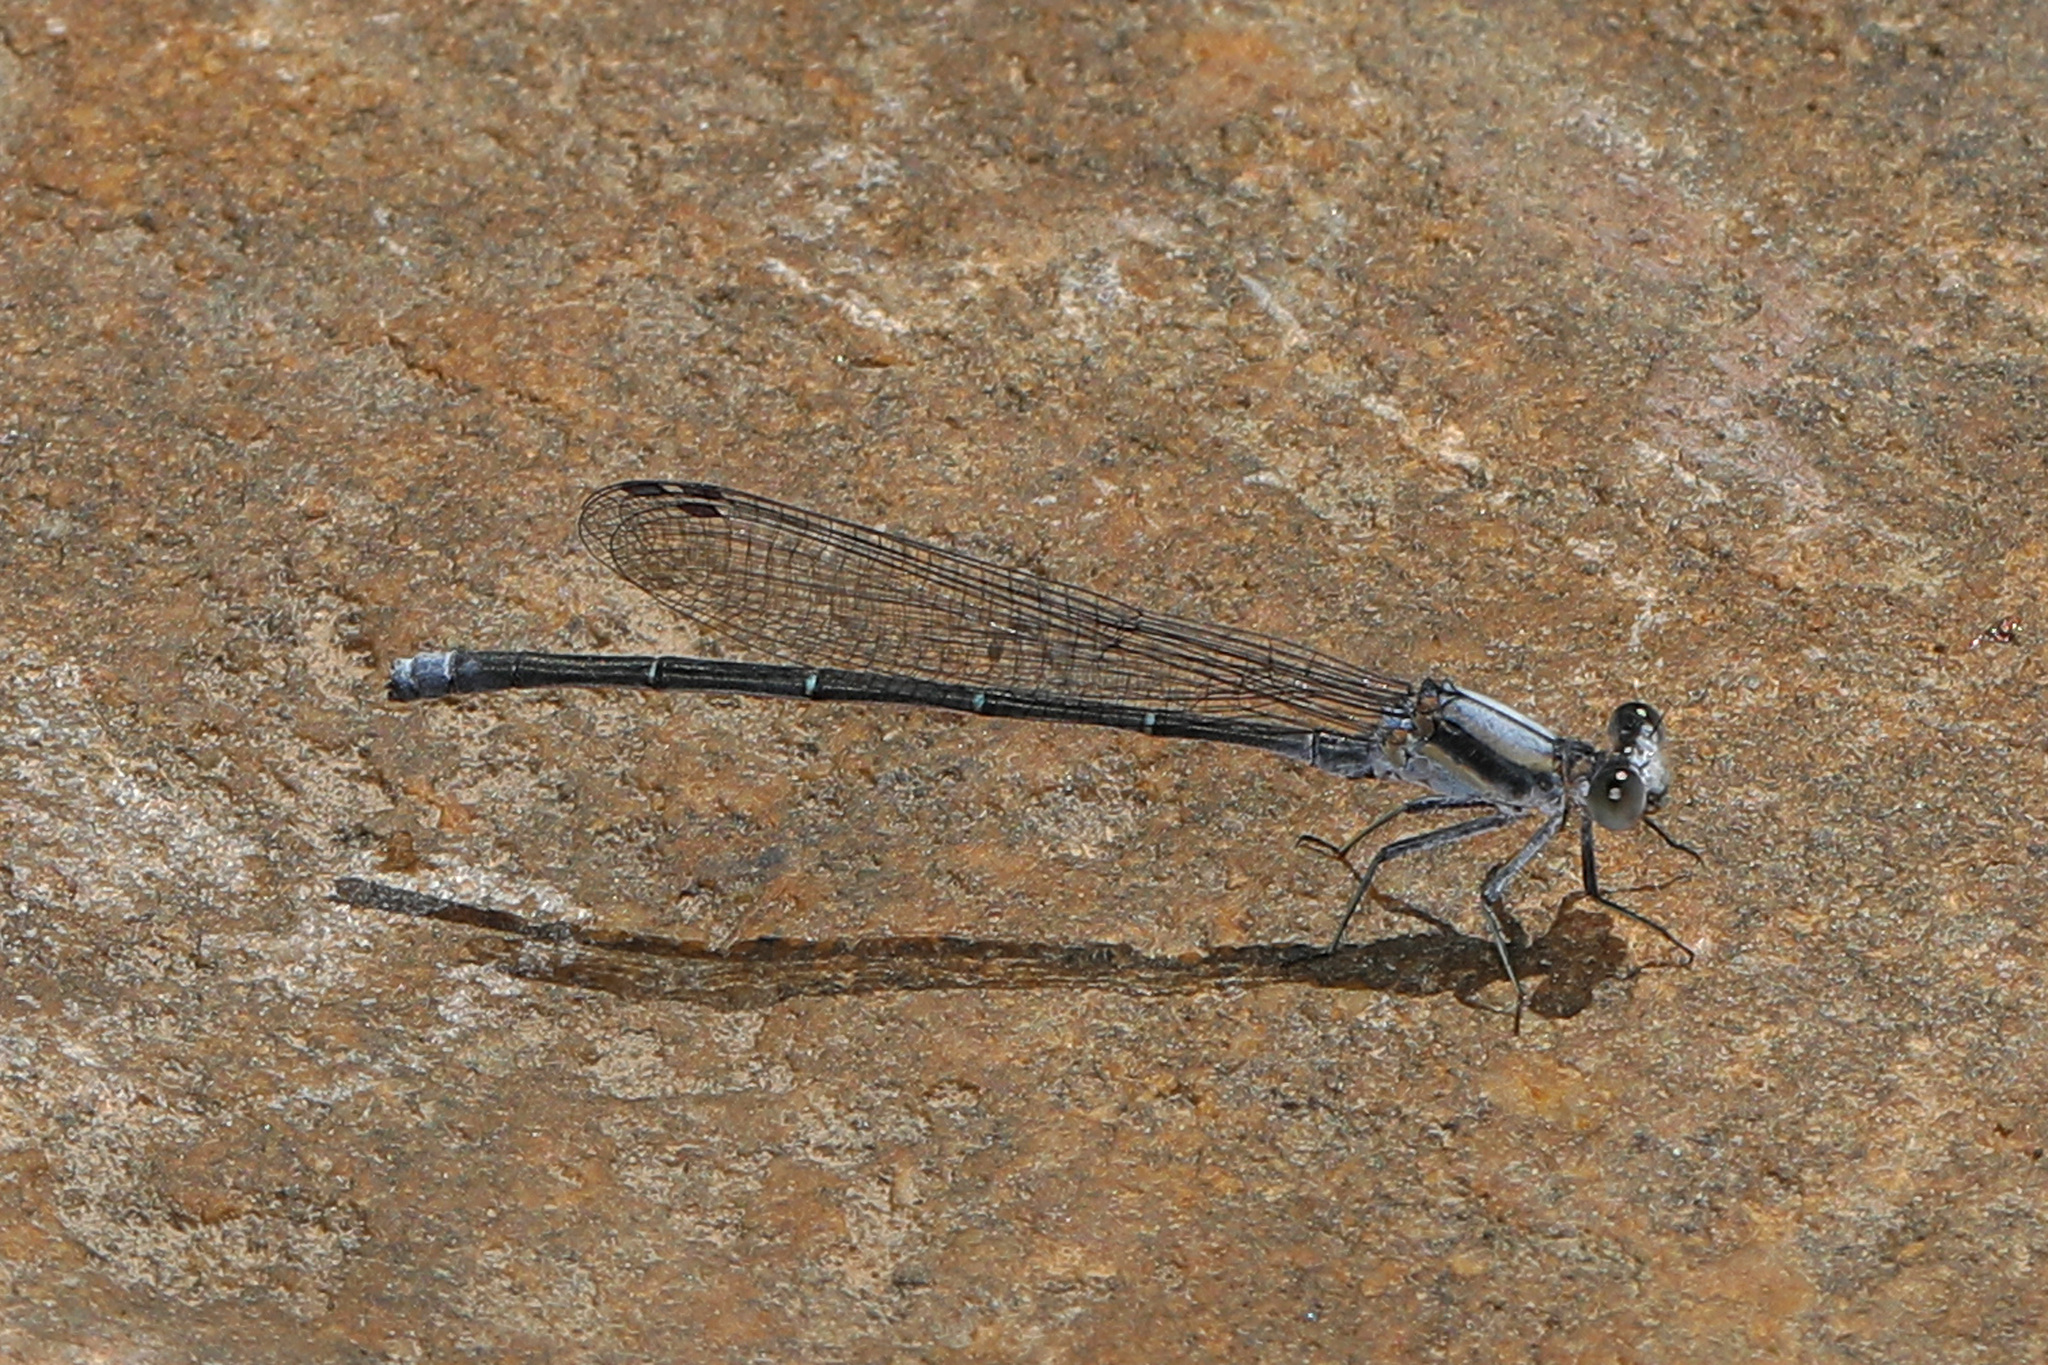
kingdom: Animalia
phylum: Arthropoda
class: Insecta
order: Odonata
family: Coenagrionidae
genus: Argia
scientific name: Argia moesta
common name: Powdered dancer
